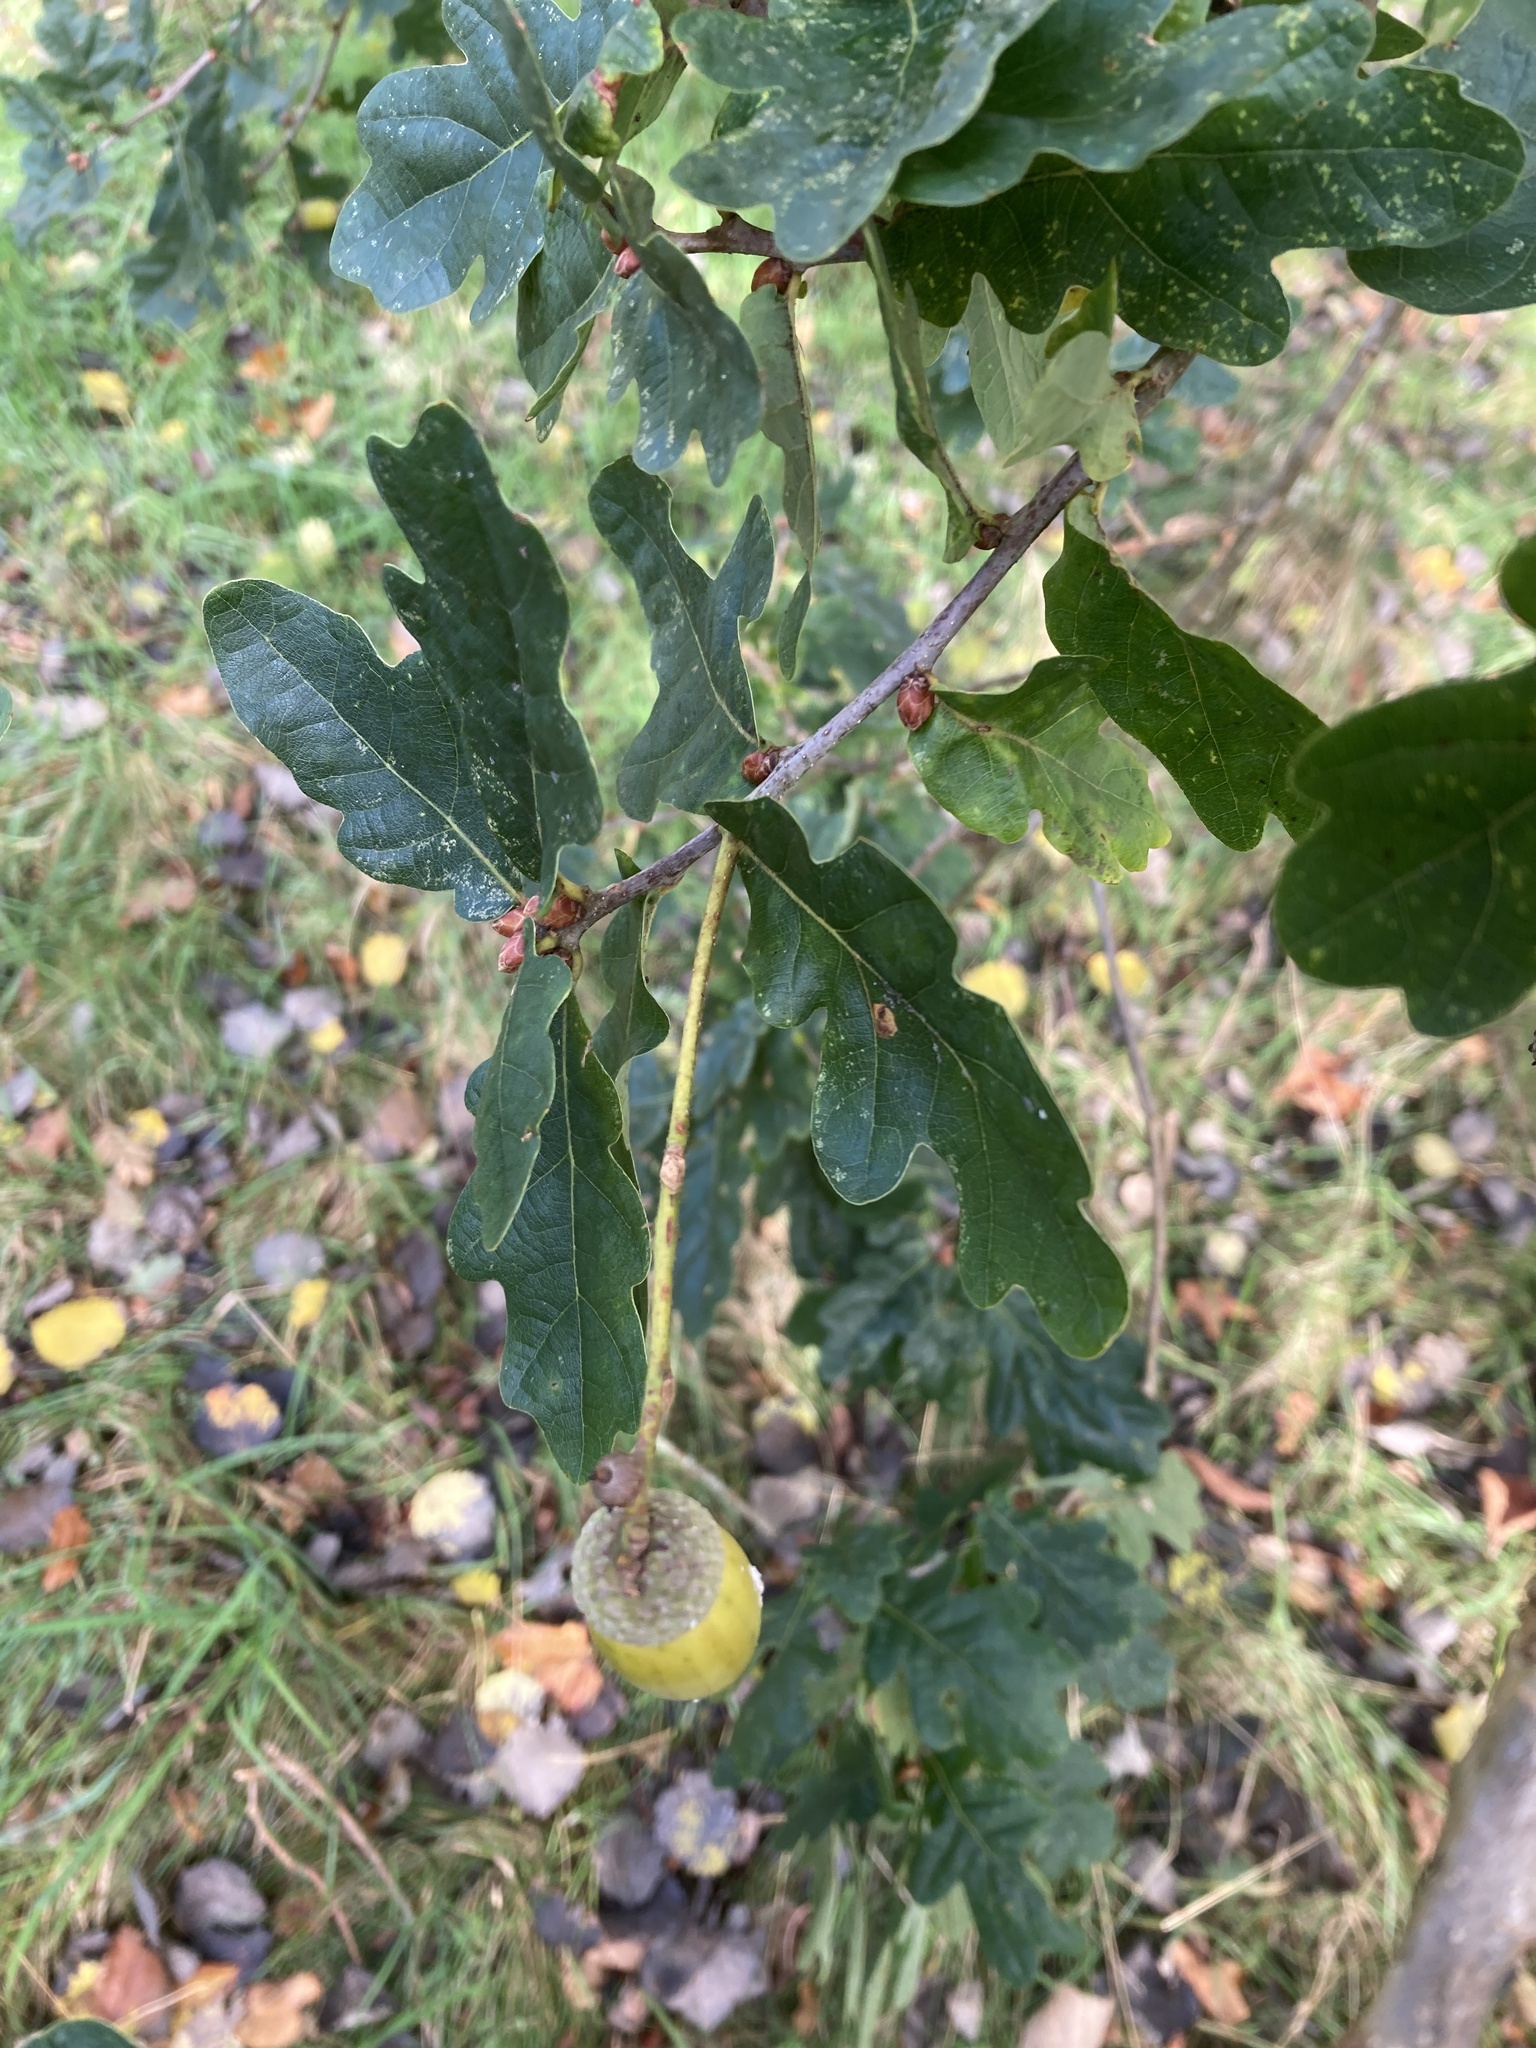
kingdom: Plantae
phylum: Tracheophyta
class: Magnoliopsida
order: Fagales
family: Fagaceae
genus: Quercus
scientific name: Quercus robur
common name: Pedunculate oak
